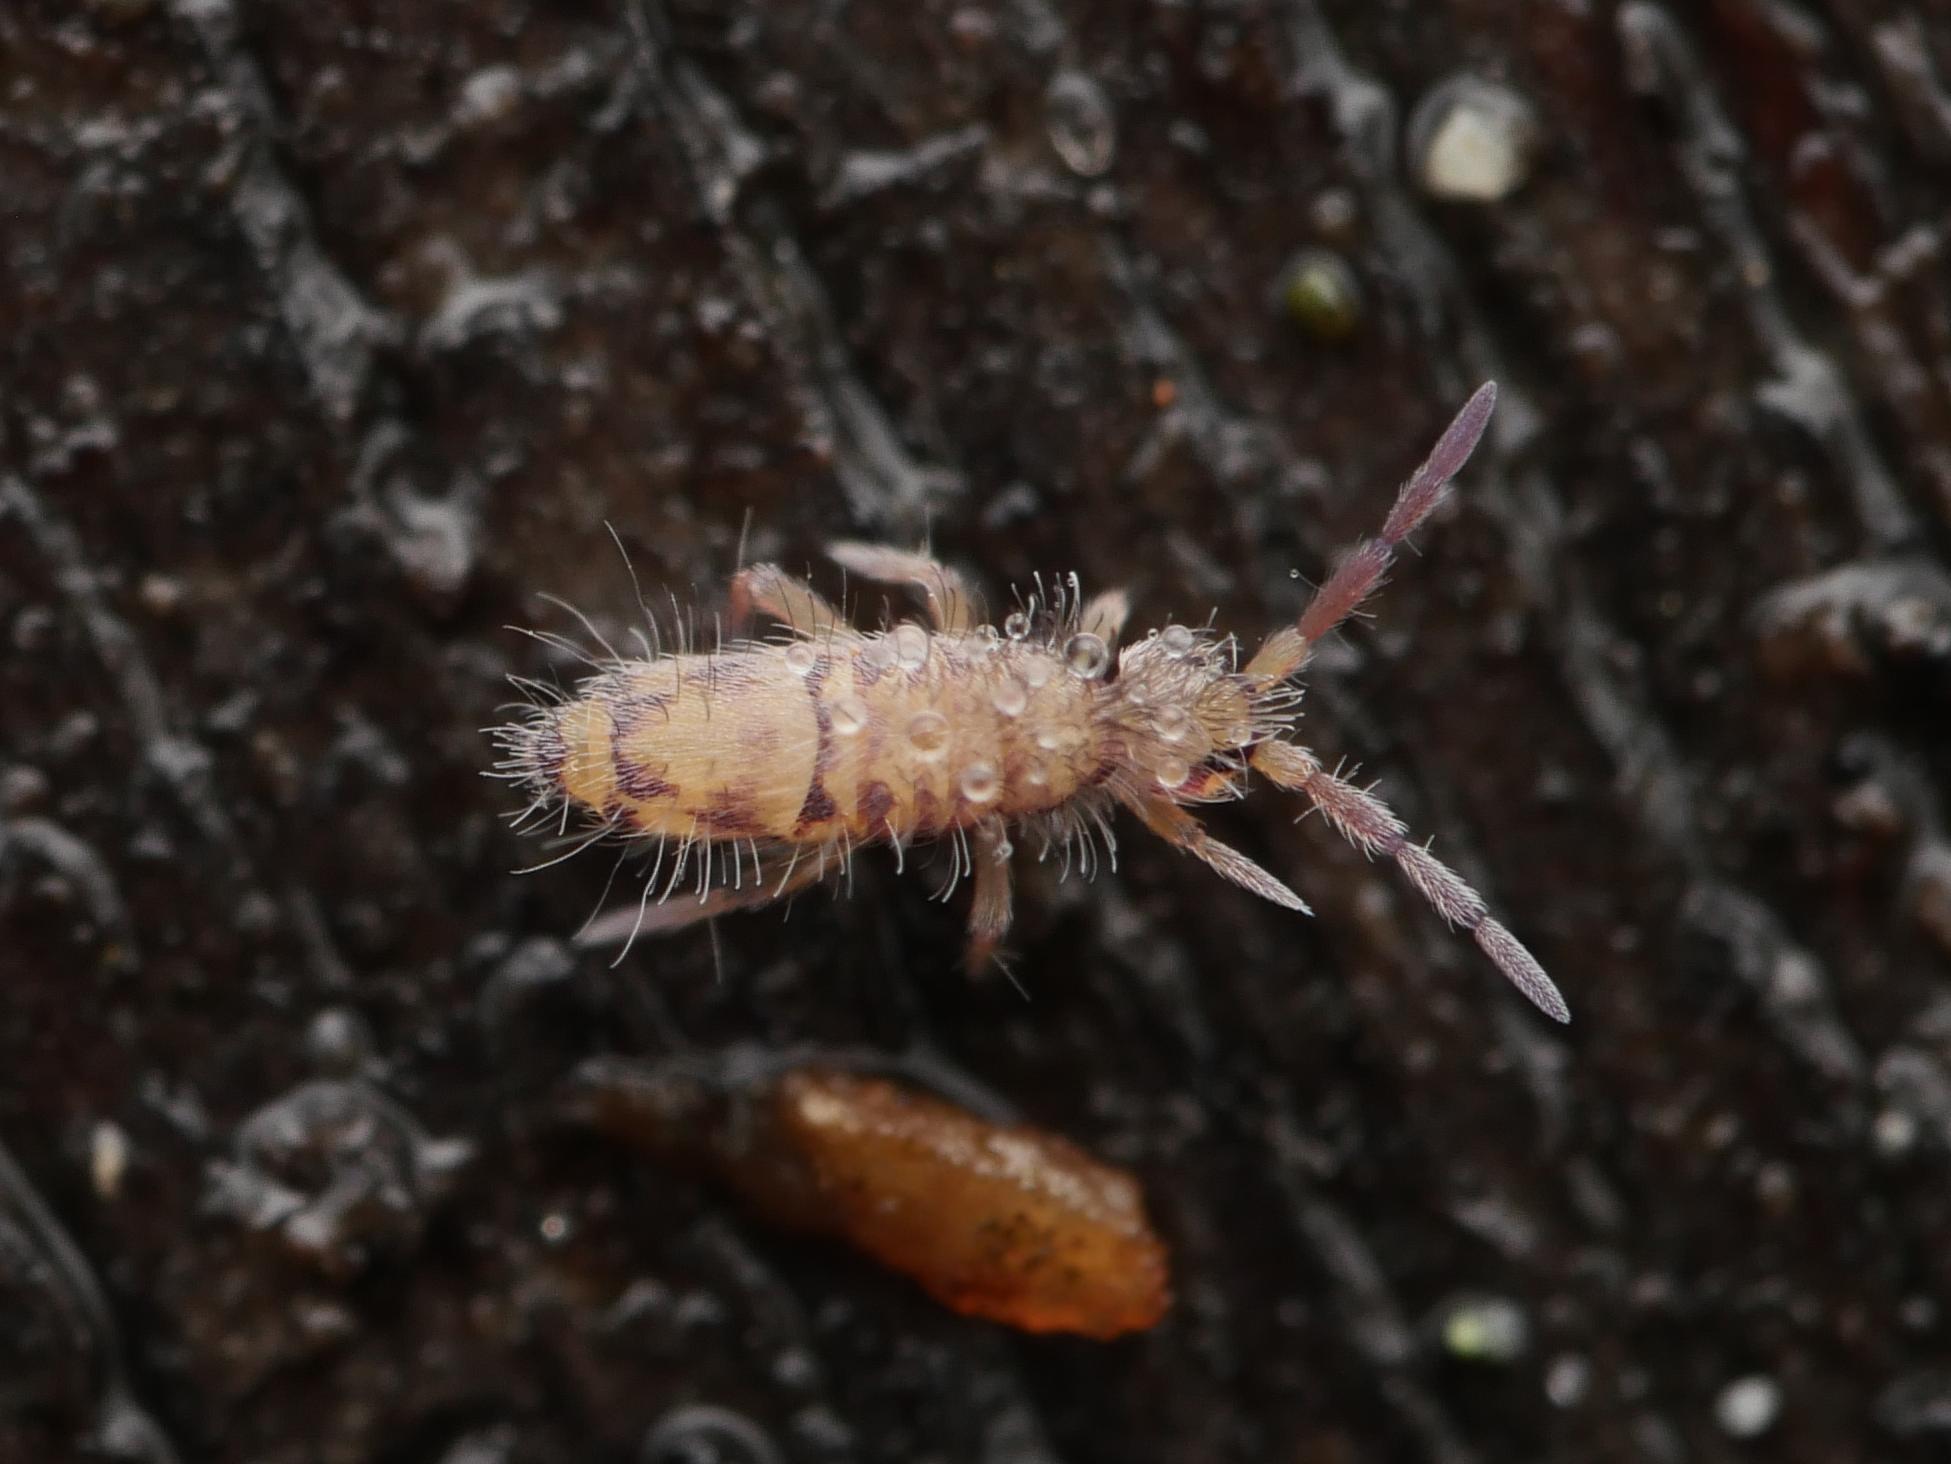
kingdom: Animalia
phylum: Arthropoda
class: Collembola
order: Entomobryomorpha
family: Entomobryidae
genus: Entomobrya
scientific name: Entomobrya multifasciata
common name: Springtail
